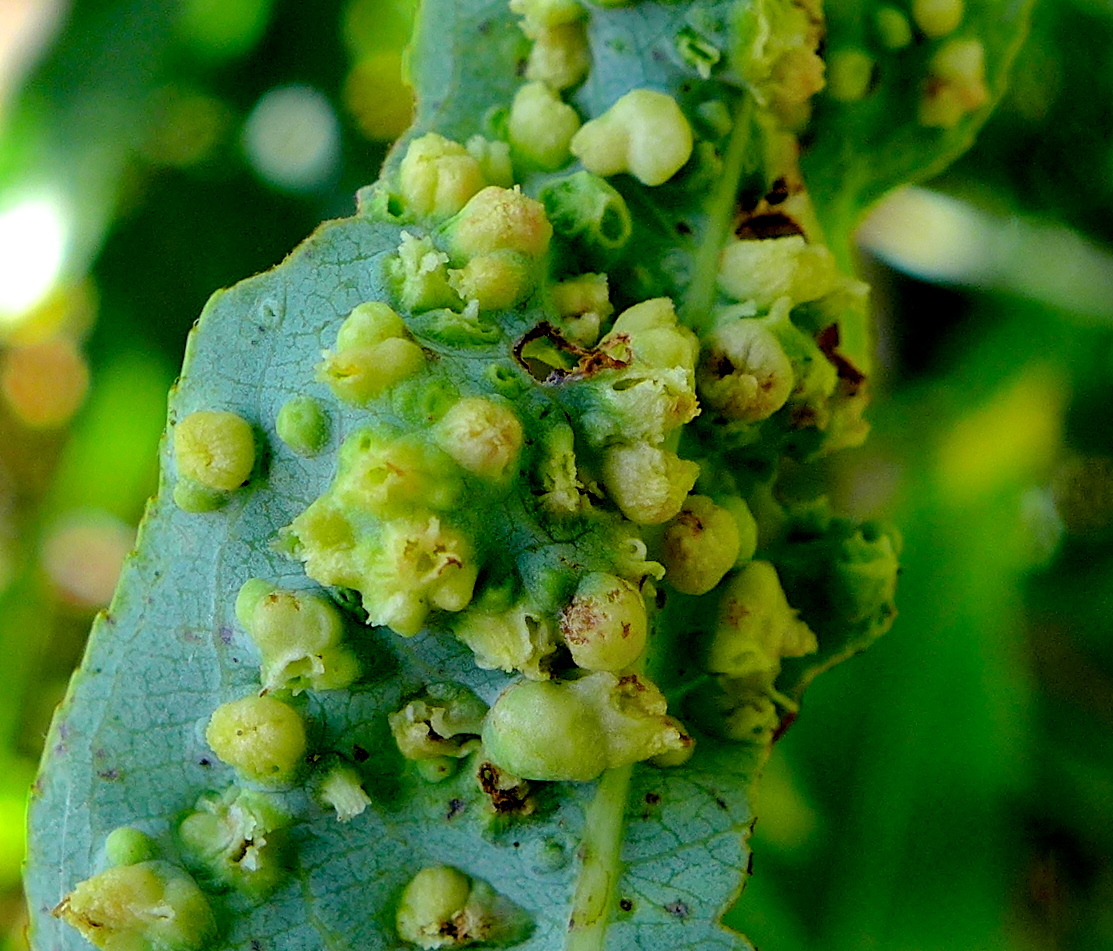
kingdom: Animalia
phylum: Arthropoda
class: Arachnida
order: Trombidiformes
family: Eriophyidae
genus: Aculus
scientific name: Aculus tetanothrix
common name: Willow bead gall mite
